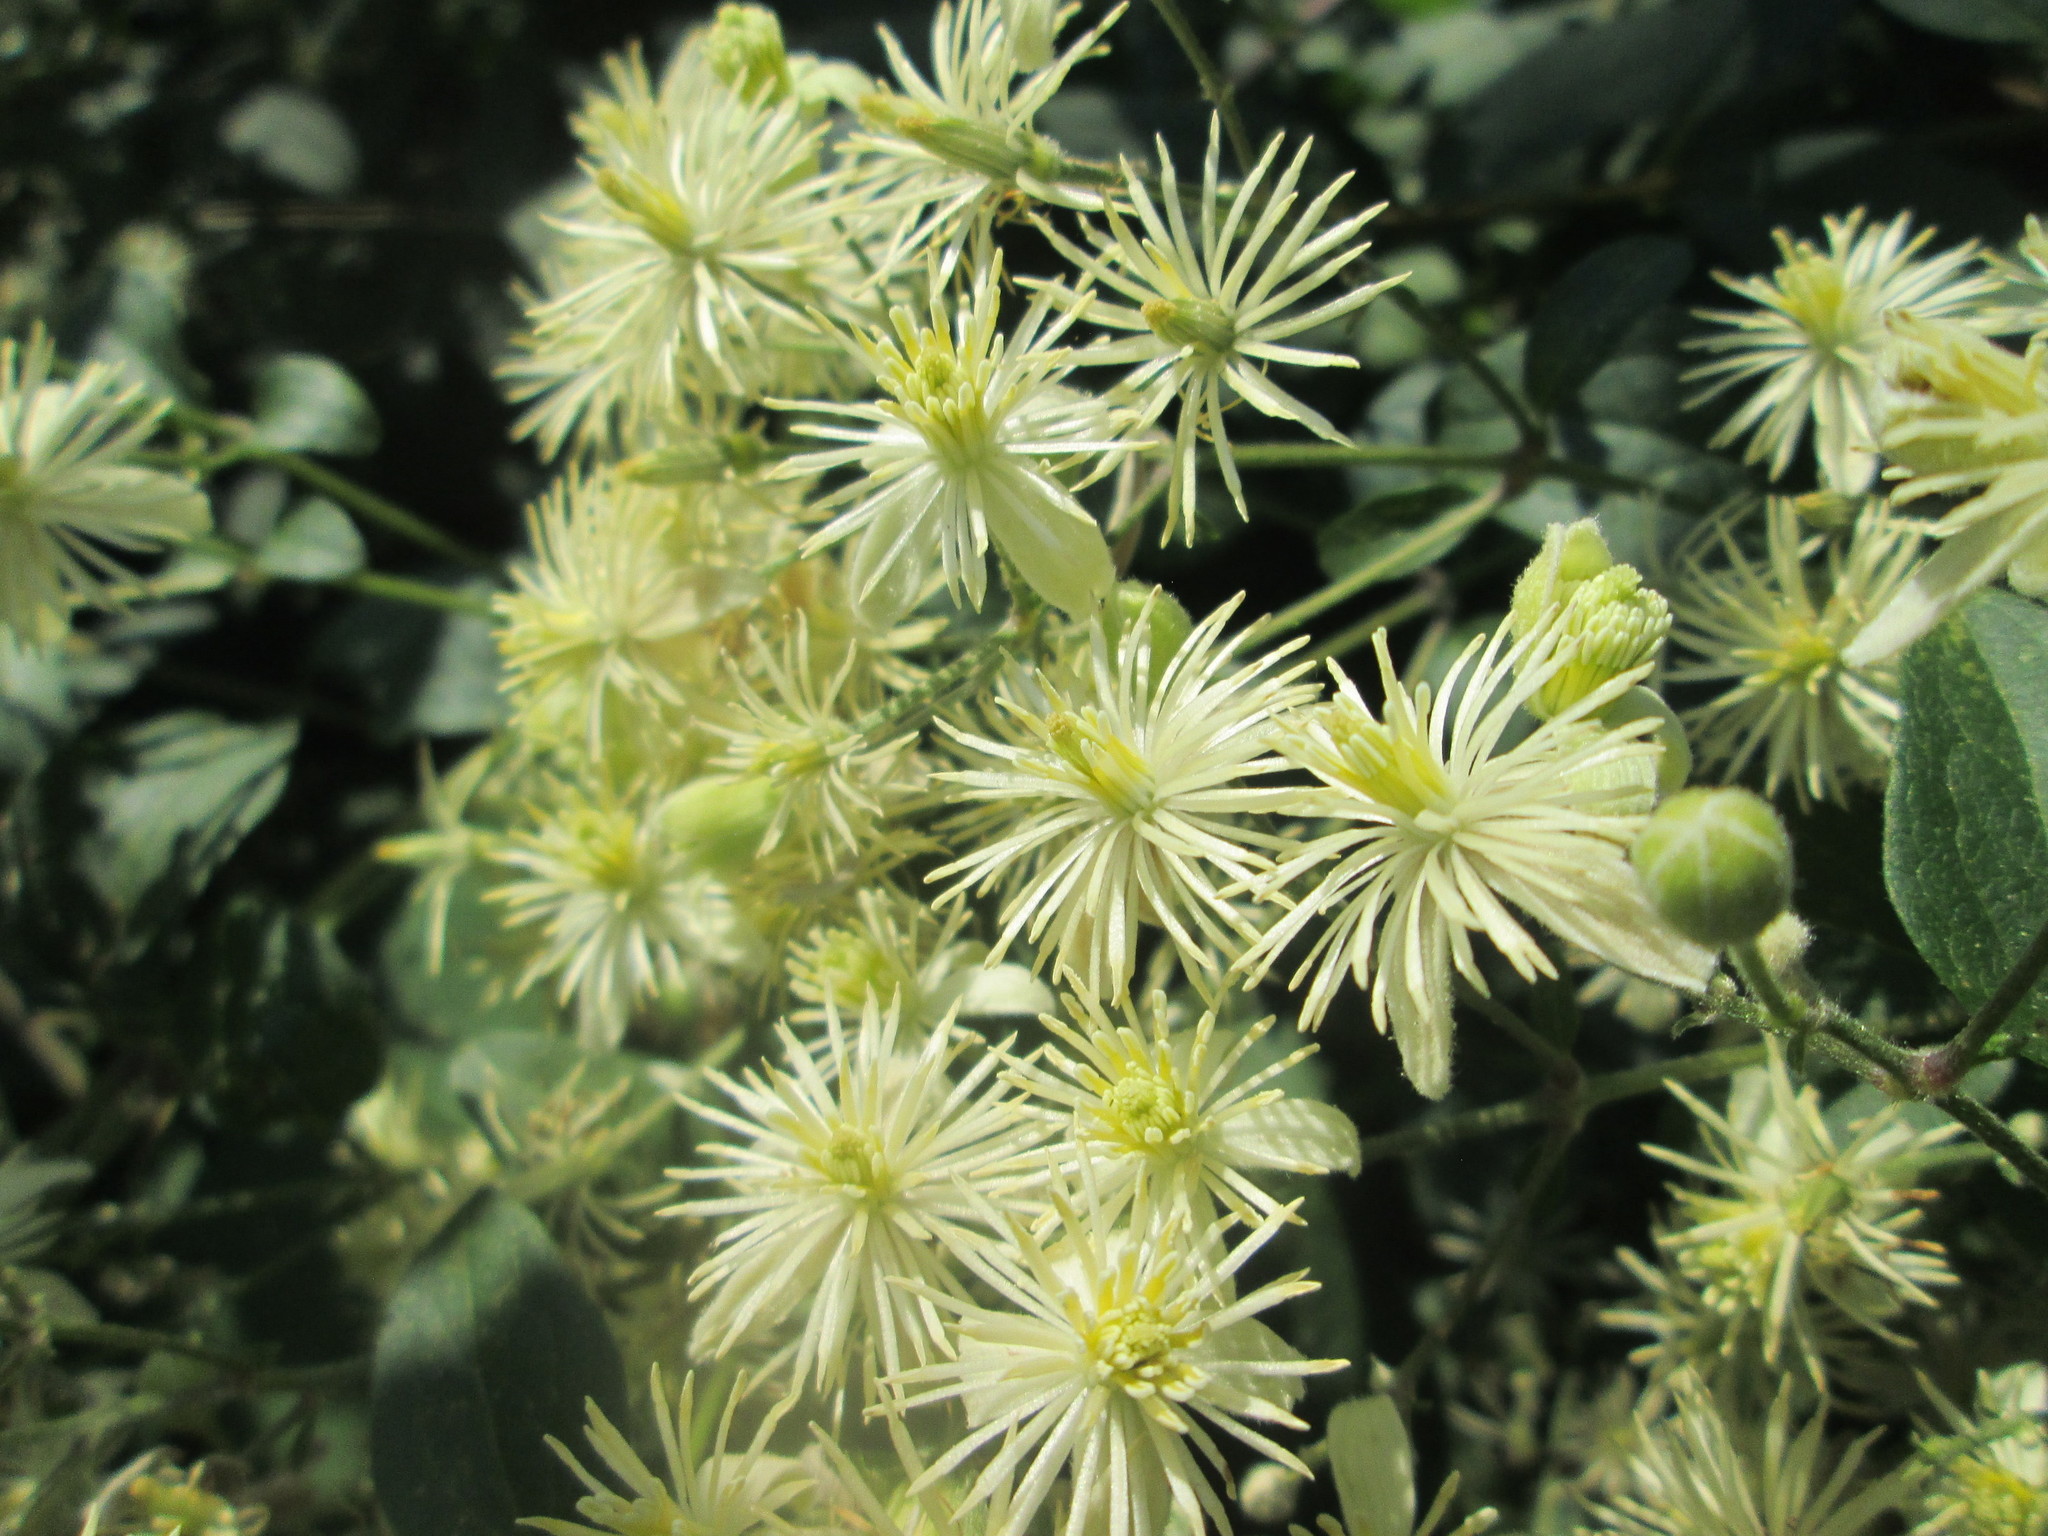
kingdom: Plantae
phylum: Tracheophyta
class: Magnoliopsida
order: Ranunculales
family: Ranunculaceae
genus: Clematis
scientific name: Clematis vitalba
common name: Evergreen clematis
